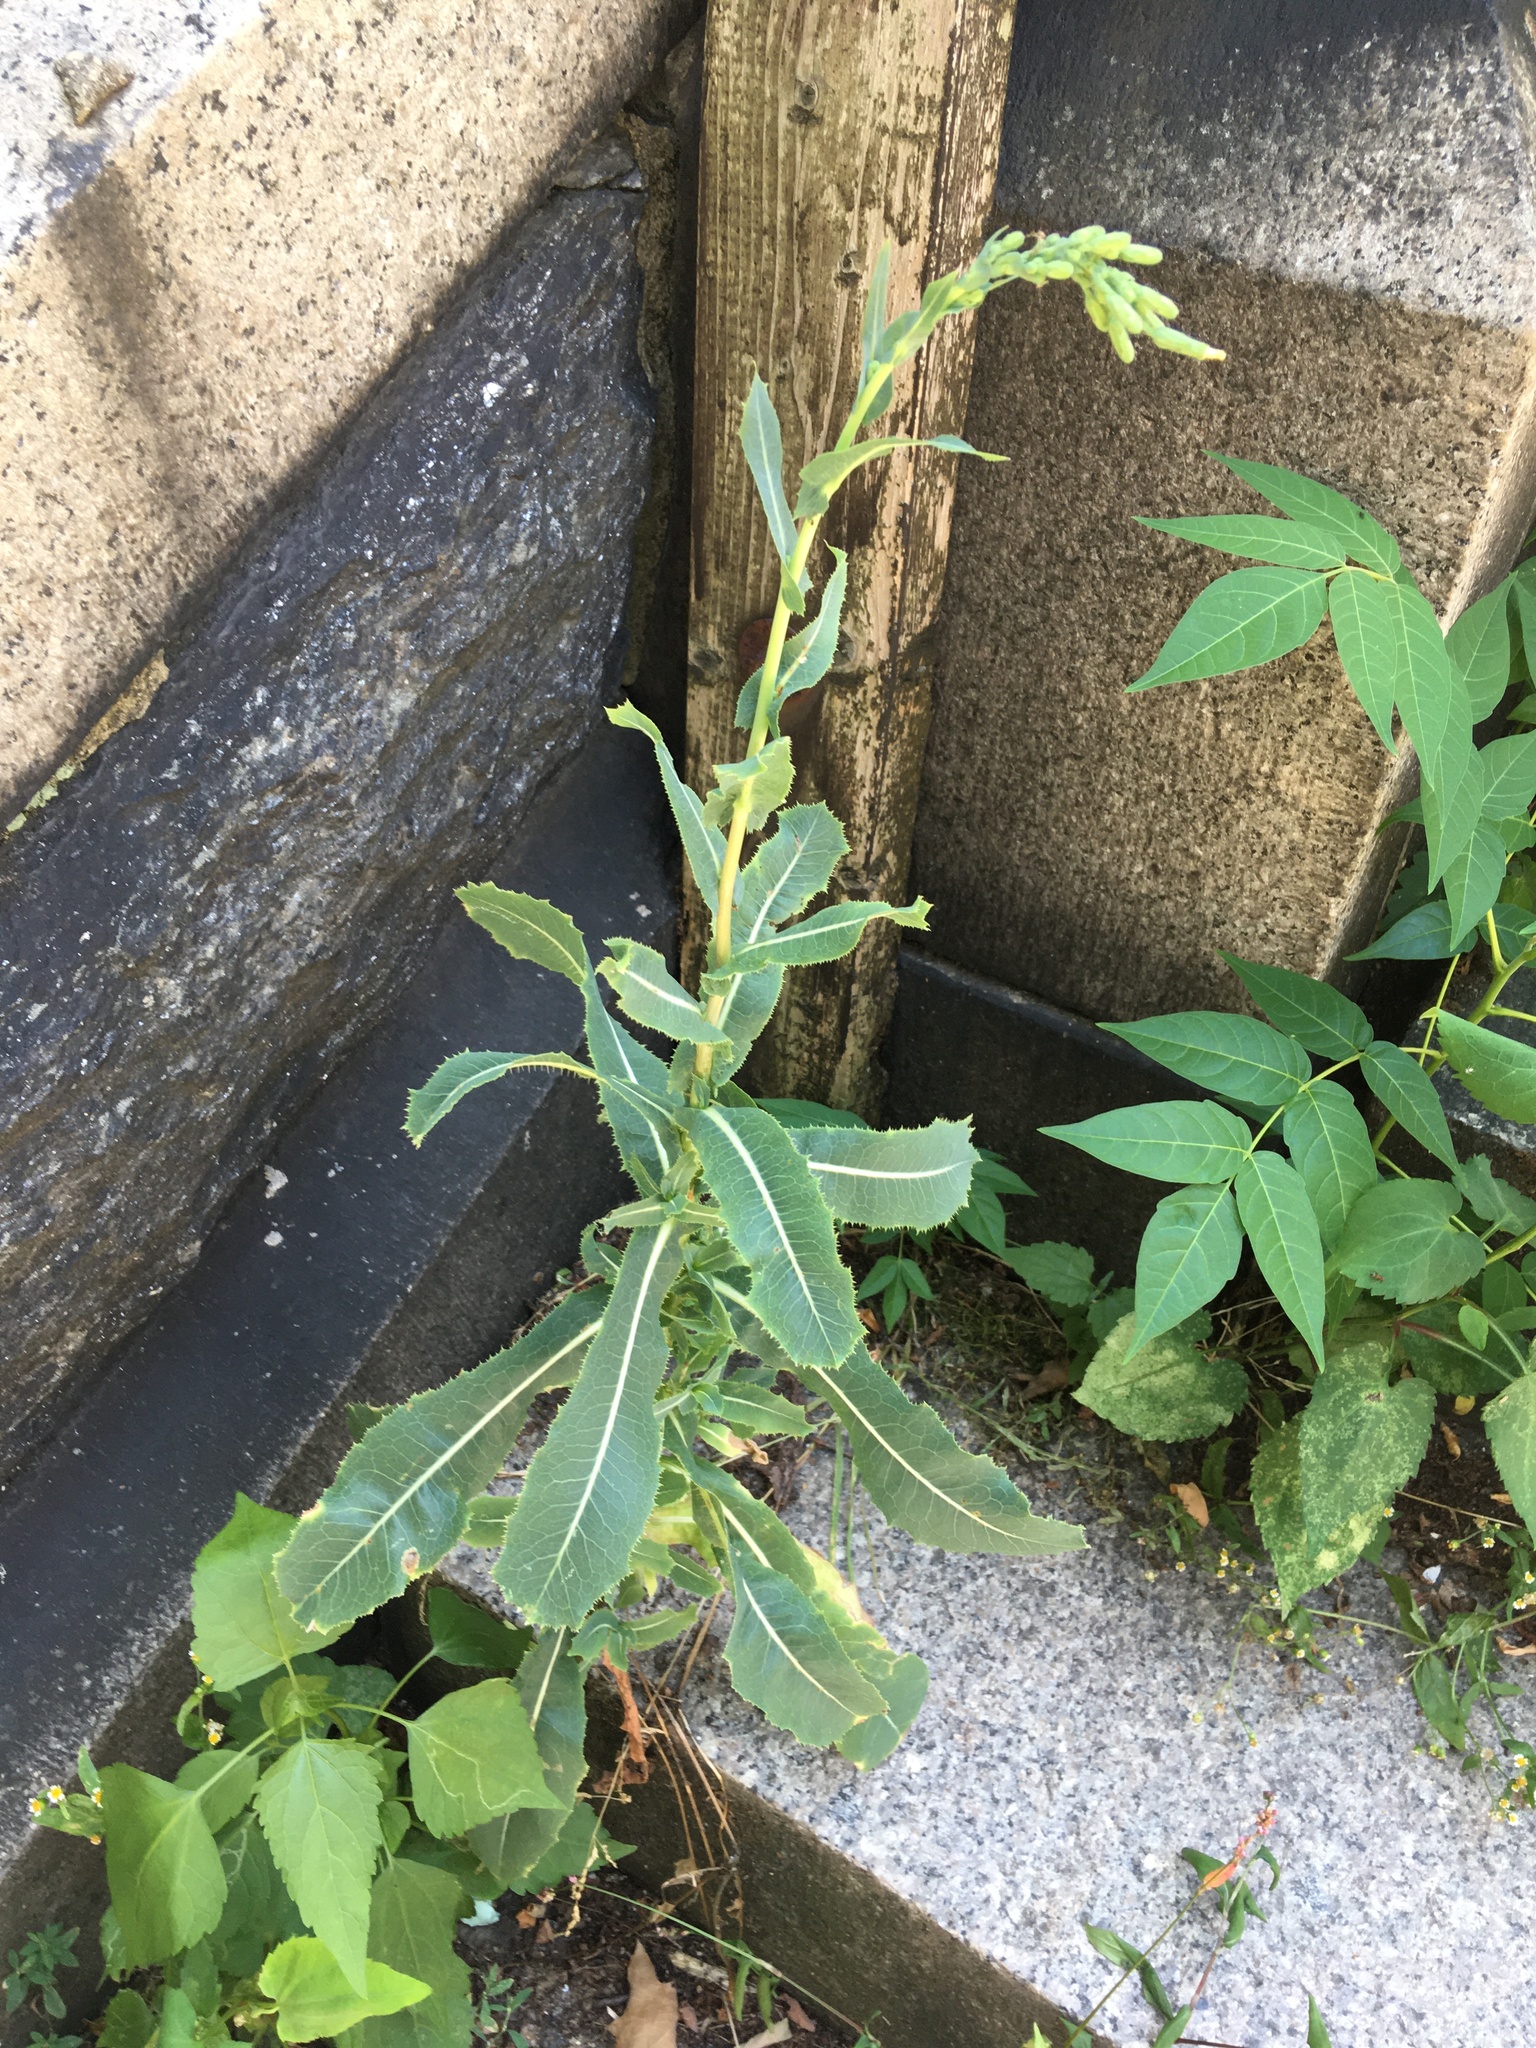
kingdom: Plantae
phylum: Tracheophyta
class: Magnoliopsida
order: Asterales
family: Asteraceae
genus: Lactuca
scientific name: Lactuca serriola
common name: Prickly lettuce
